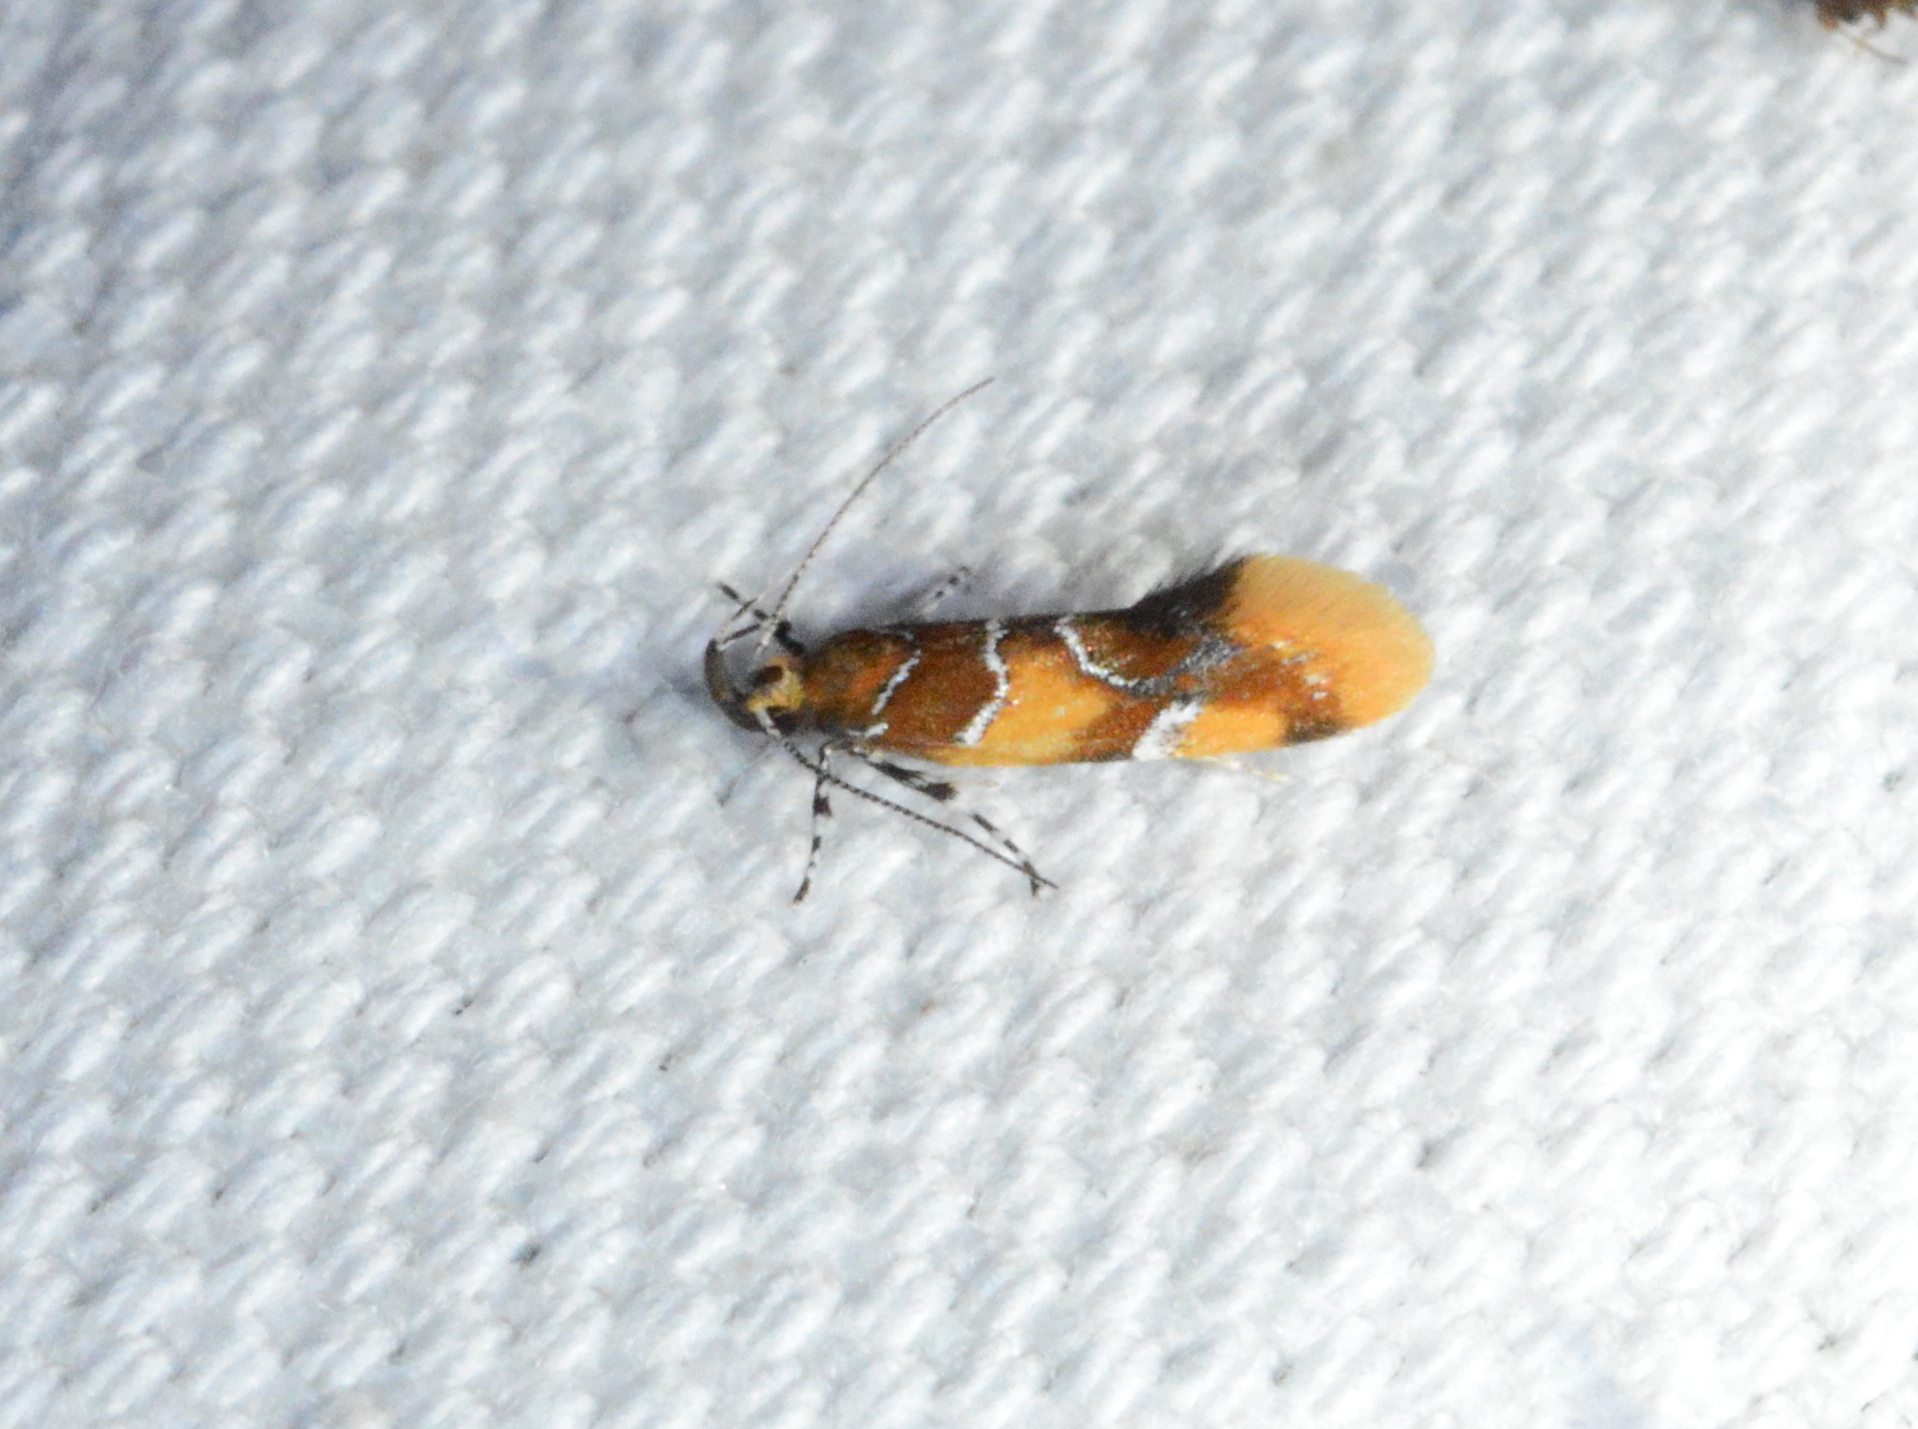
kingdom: Animalia
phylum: Arthropoda
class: Insecta
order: Lepidoptera
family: Oecophoridae
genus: Callima
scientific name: Callima argenticinctella
